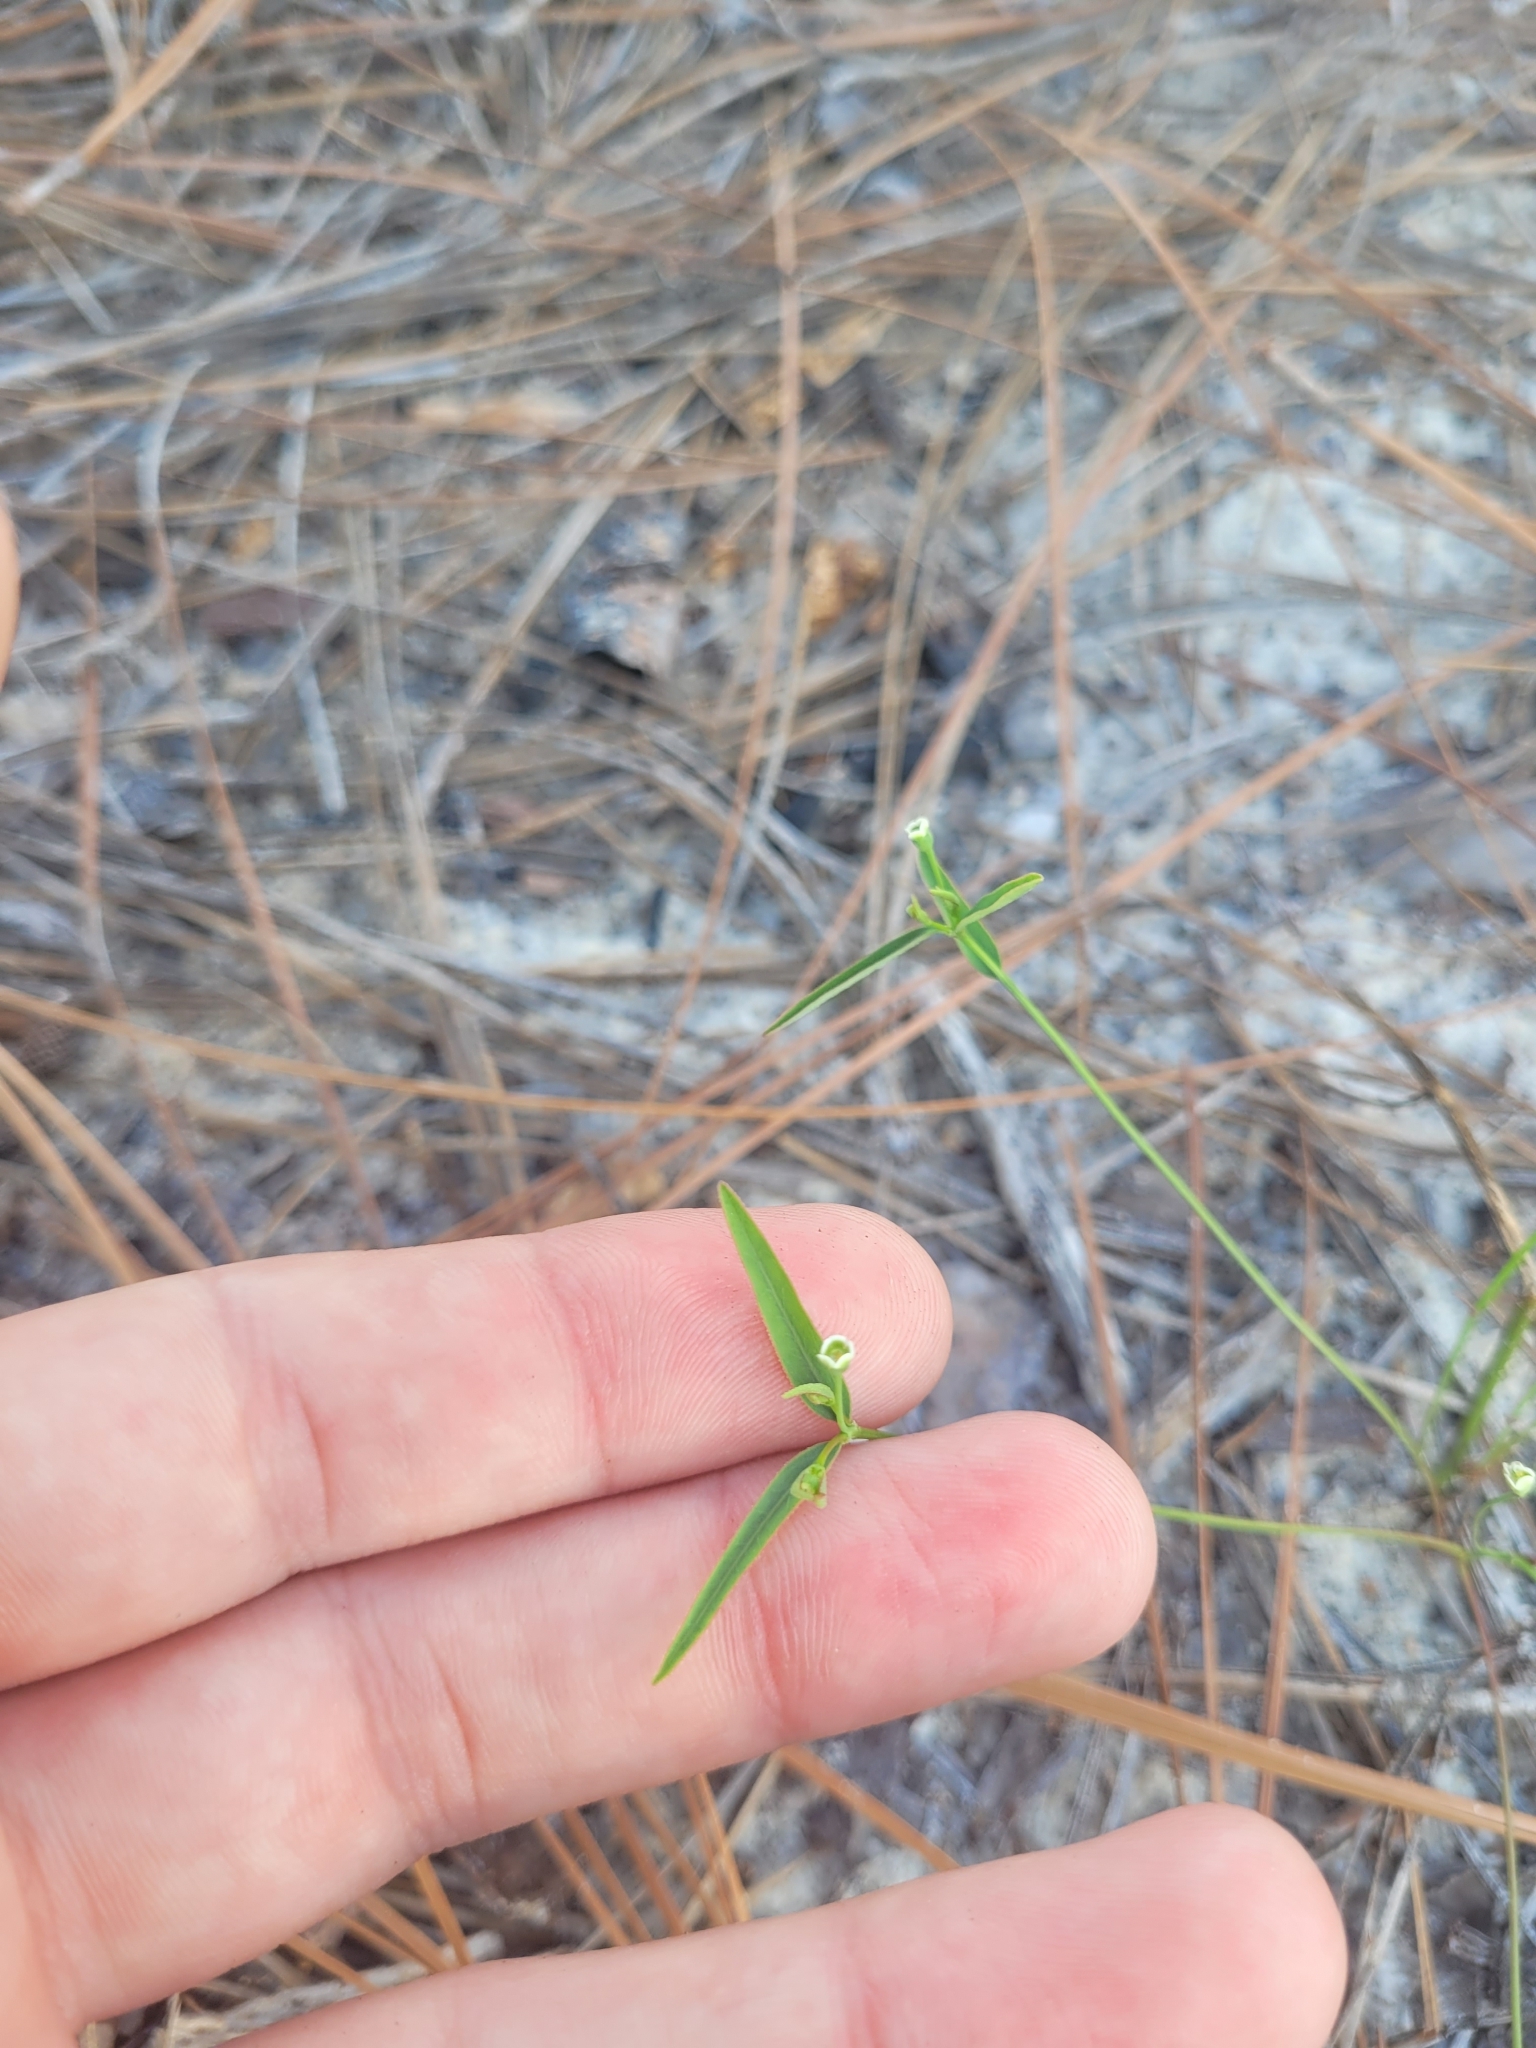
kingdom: Plantae
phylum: Tracheophyta
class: Magnoliopsida
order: Malpighiales
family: Euphorbiaceae
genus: Euphorbia
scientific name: Euphorbia curtisii
